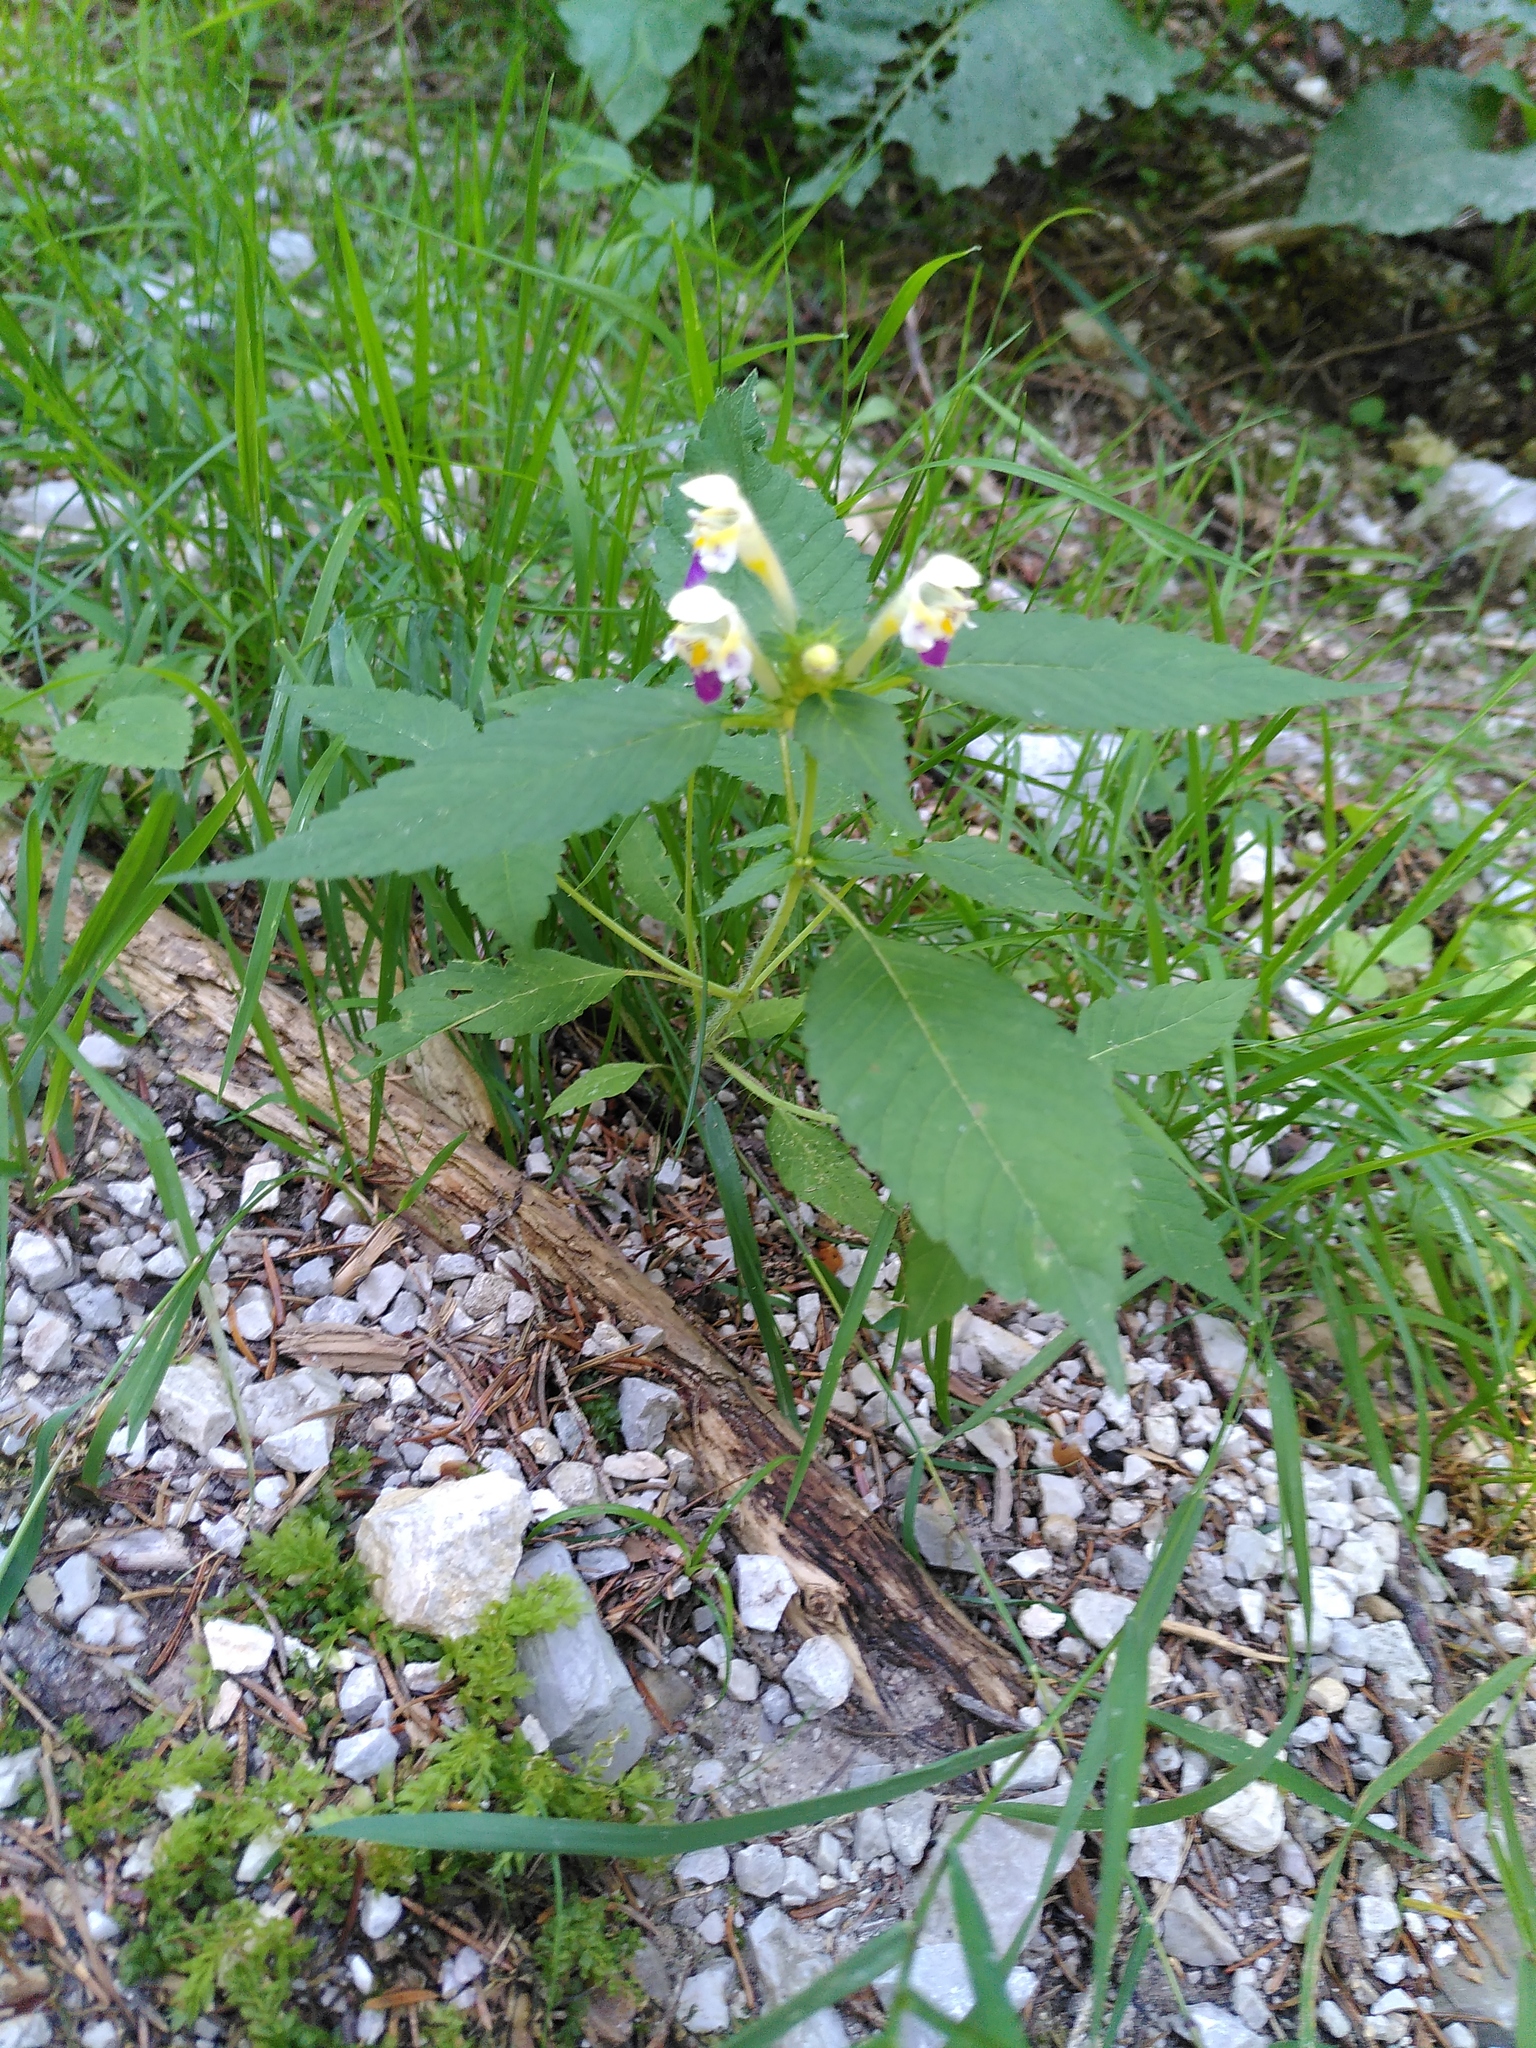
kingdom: Plantae
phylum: Tracheophyta
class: Magnoliopsida
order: Lamiales
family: Lamiaceae
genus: Galeopsis
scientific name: Galeopsis speciosa
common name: Large-flowered hemp-nettle
